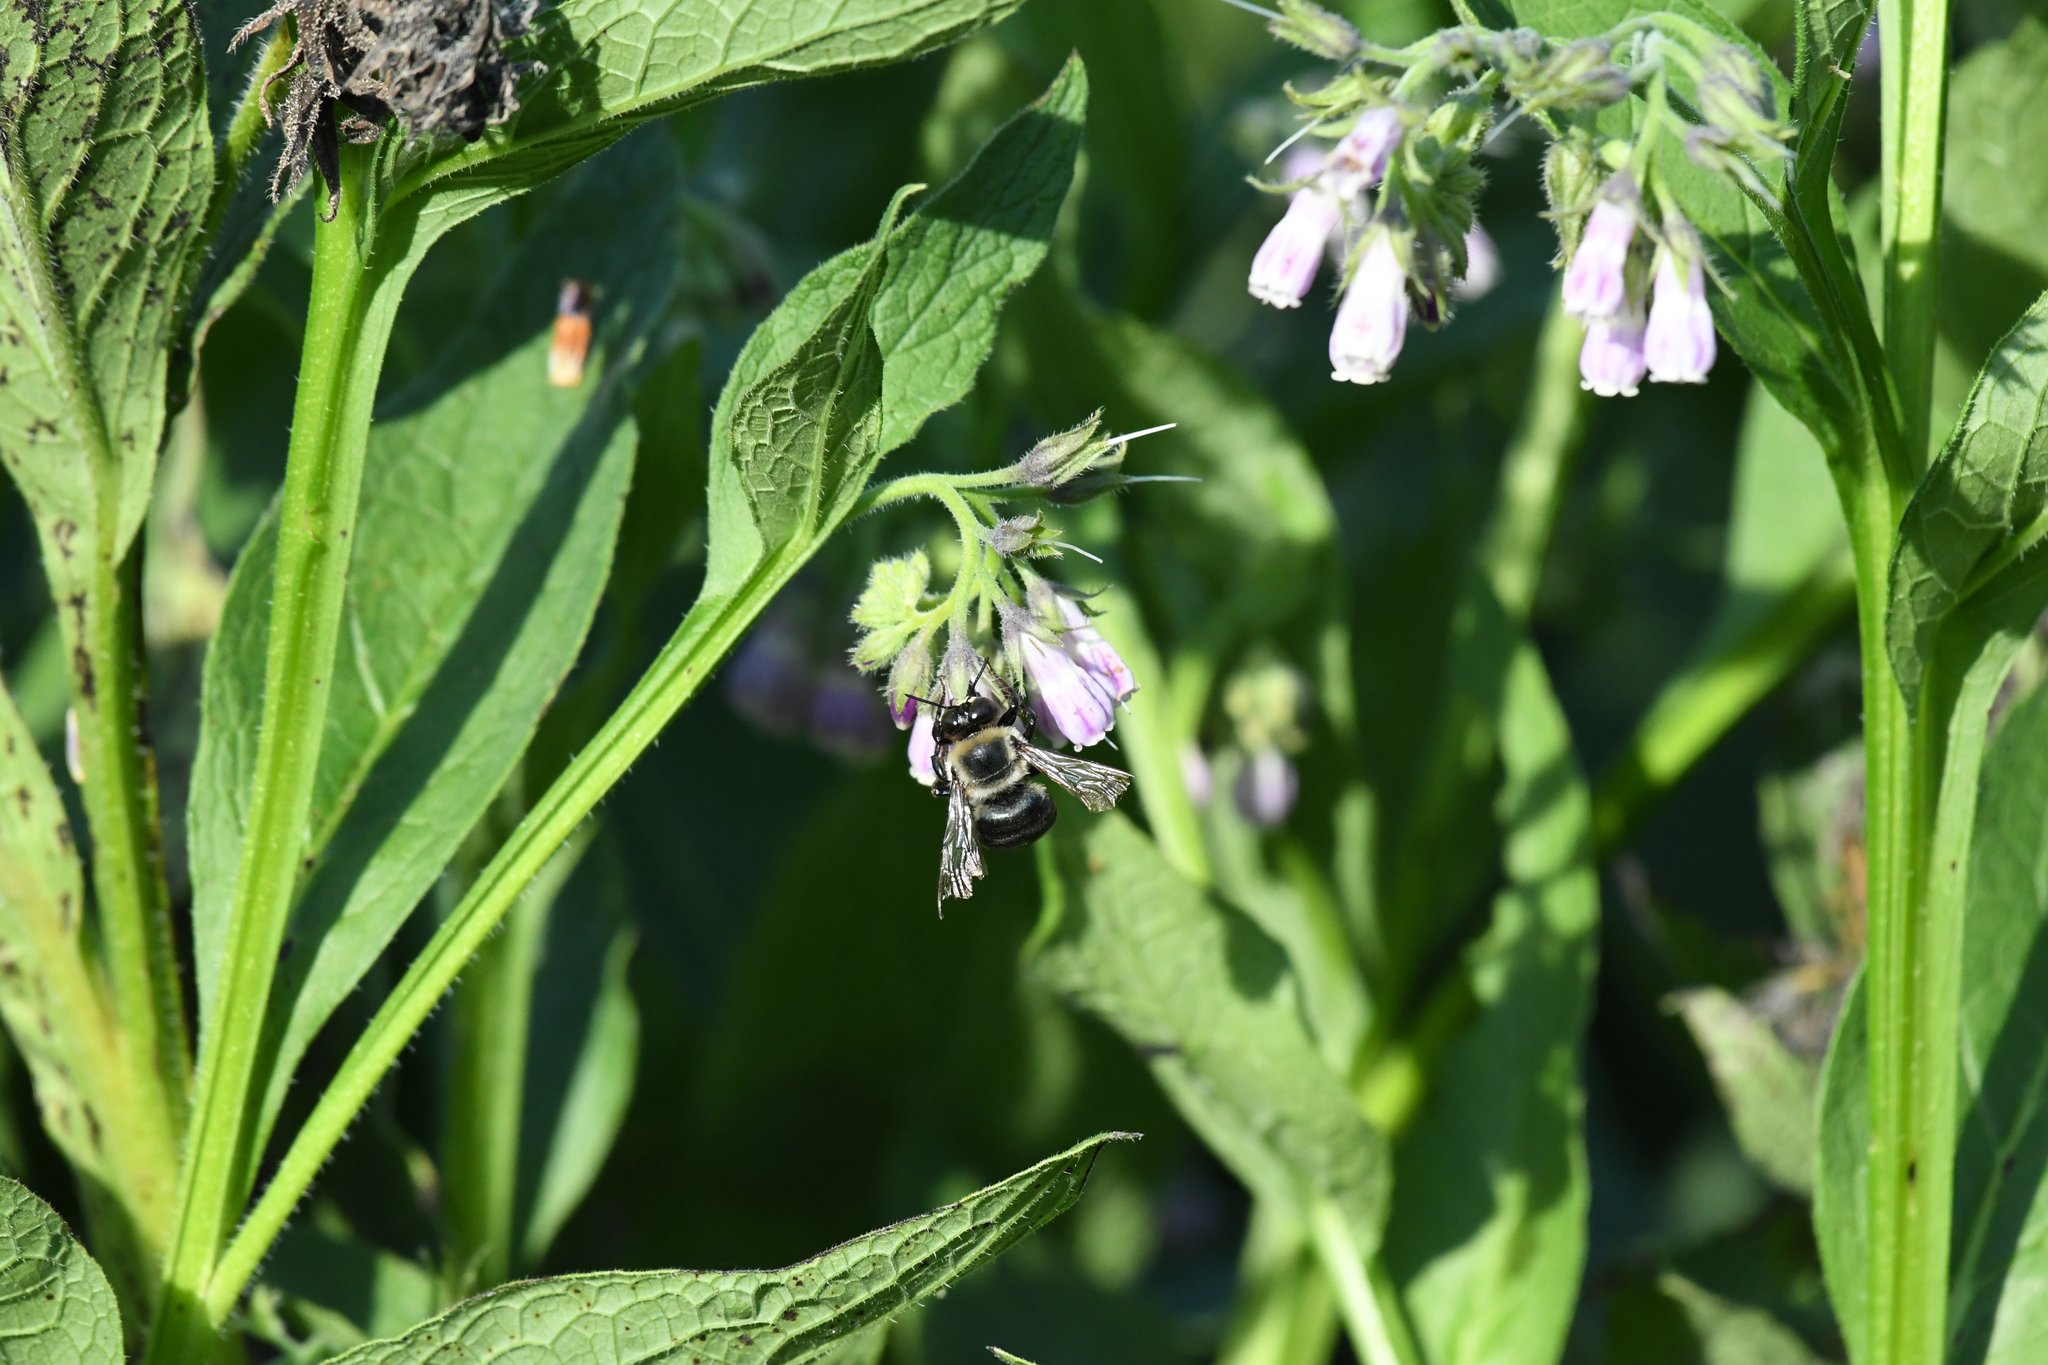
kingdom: Animalia
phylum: Arthropoda
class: Insecta
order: Hymenoptera
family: Apidae
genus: Xylocopa
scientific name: Xylocopa virginica
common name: Carpenter bee
